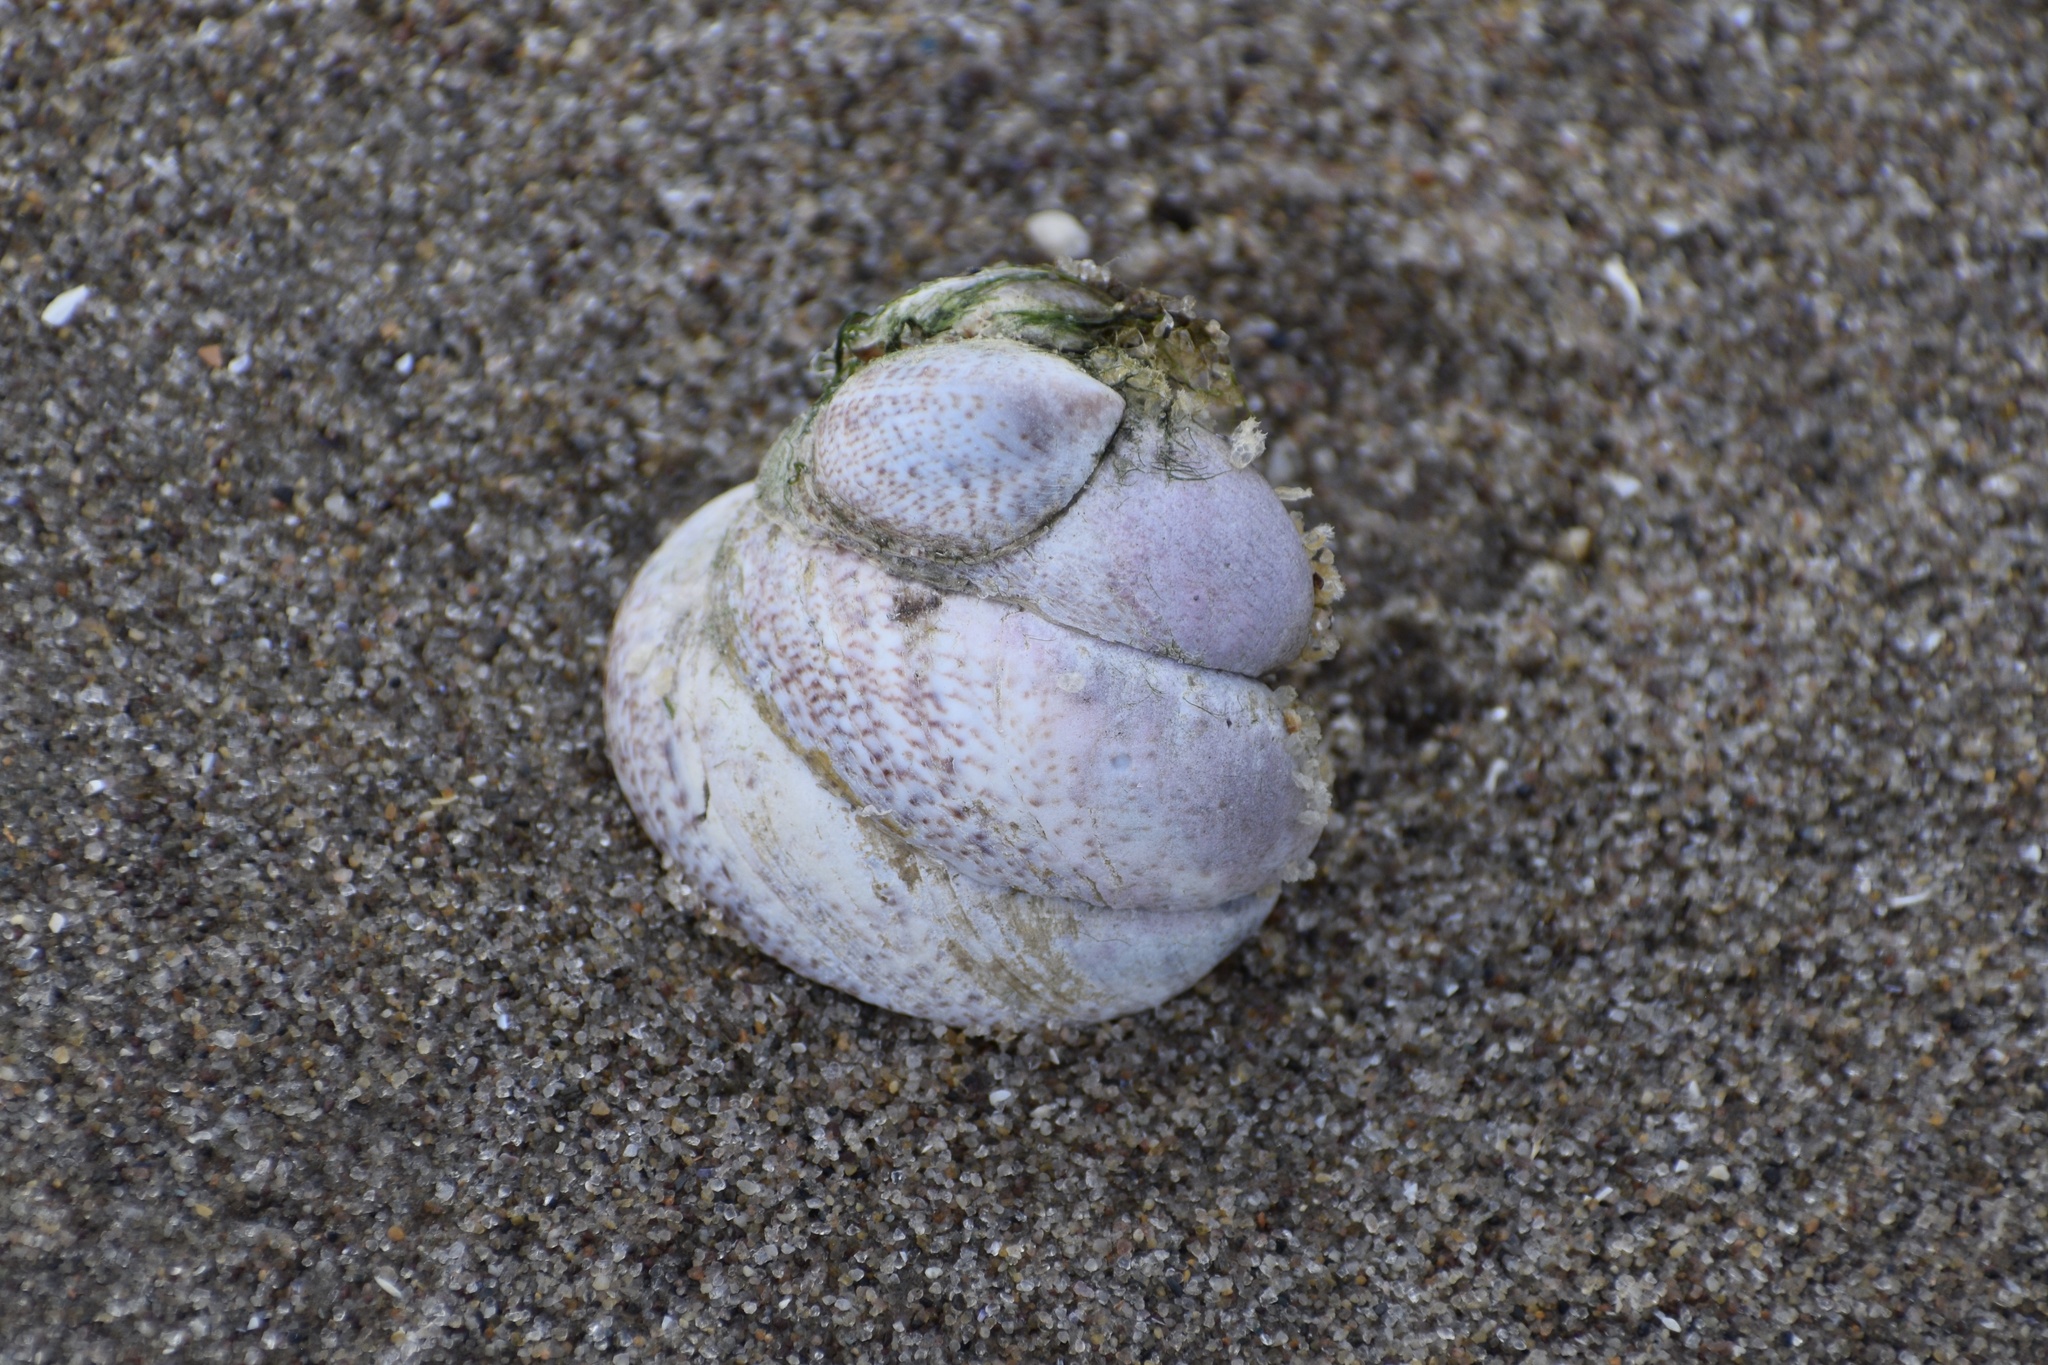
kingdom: Animalia
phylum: Mollusca
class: Gastropoda
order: Littorinimorpha
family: Calyptraeidae
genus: Crepidula
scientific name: Crepidula fornicata
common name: Slipper limpet
